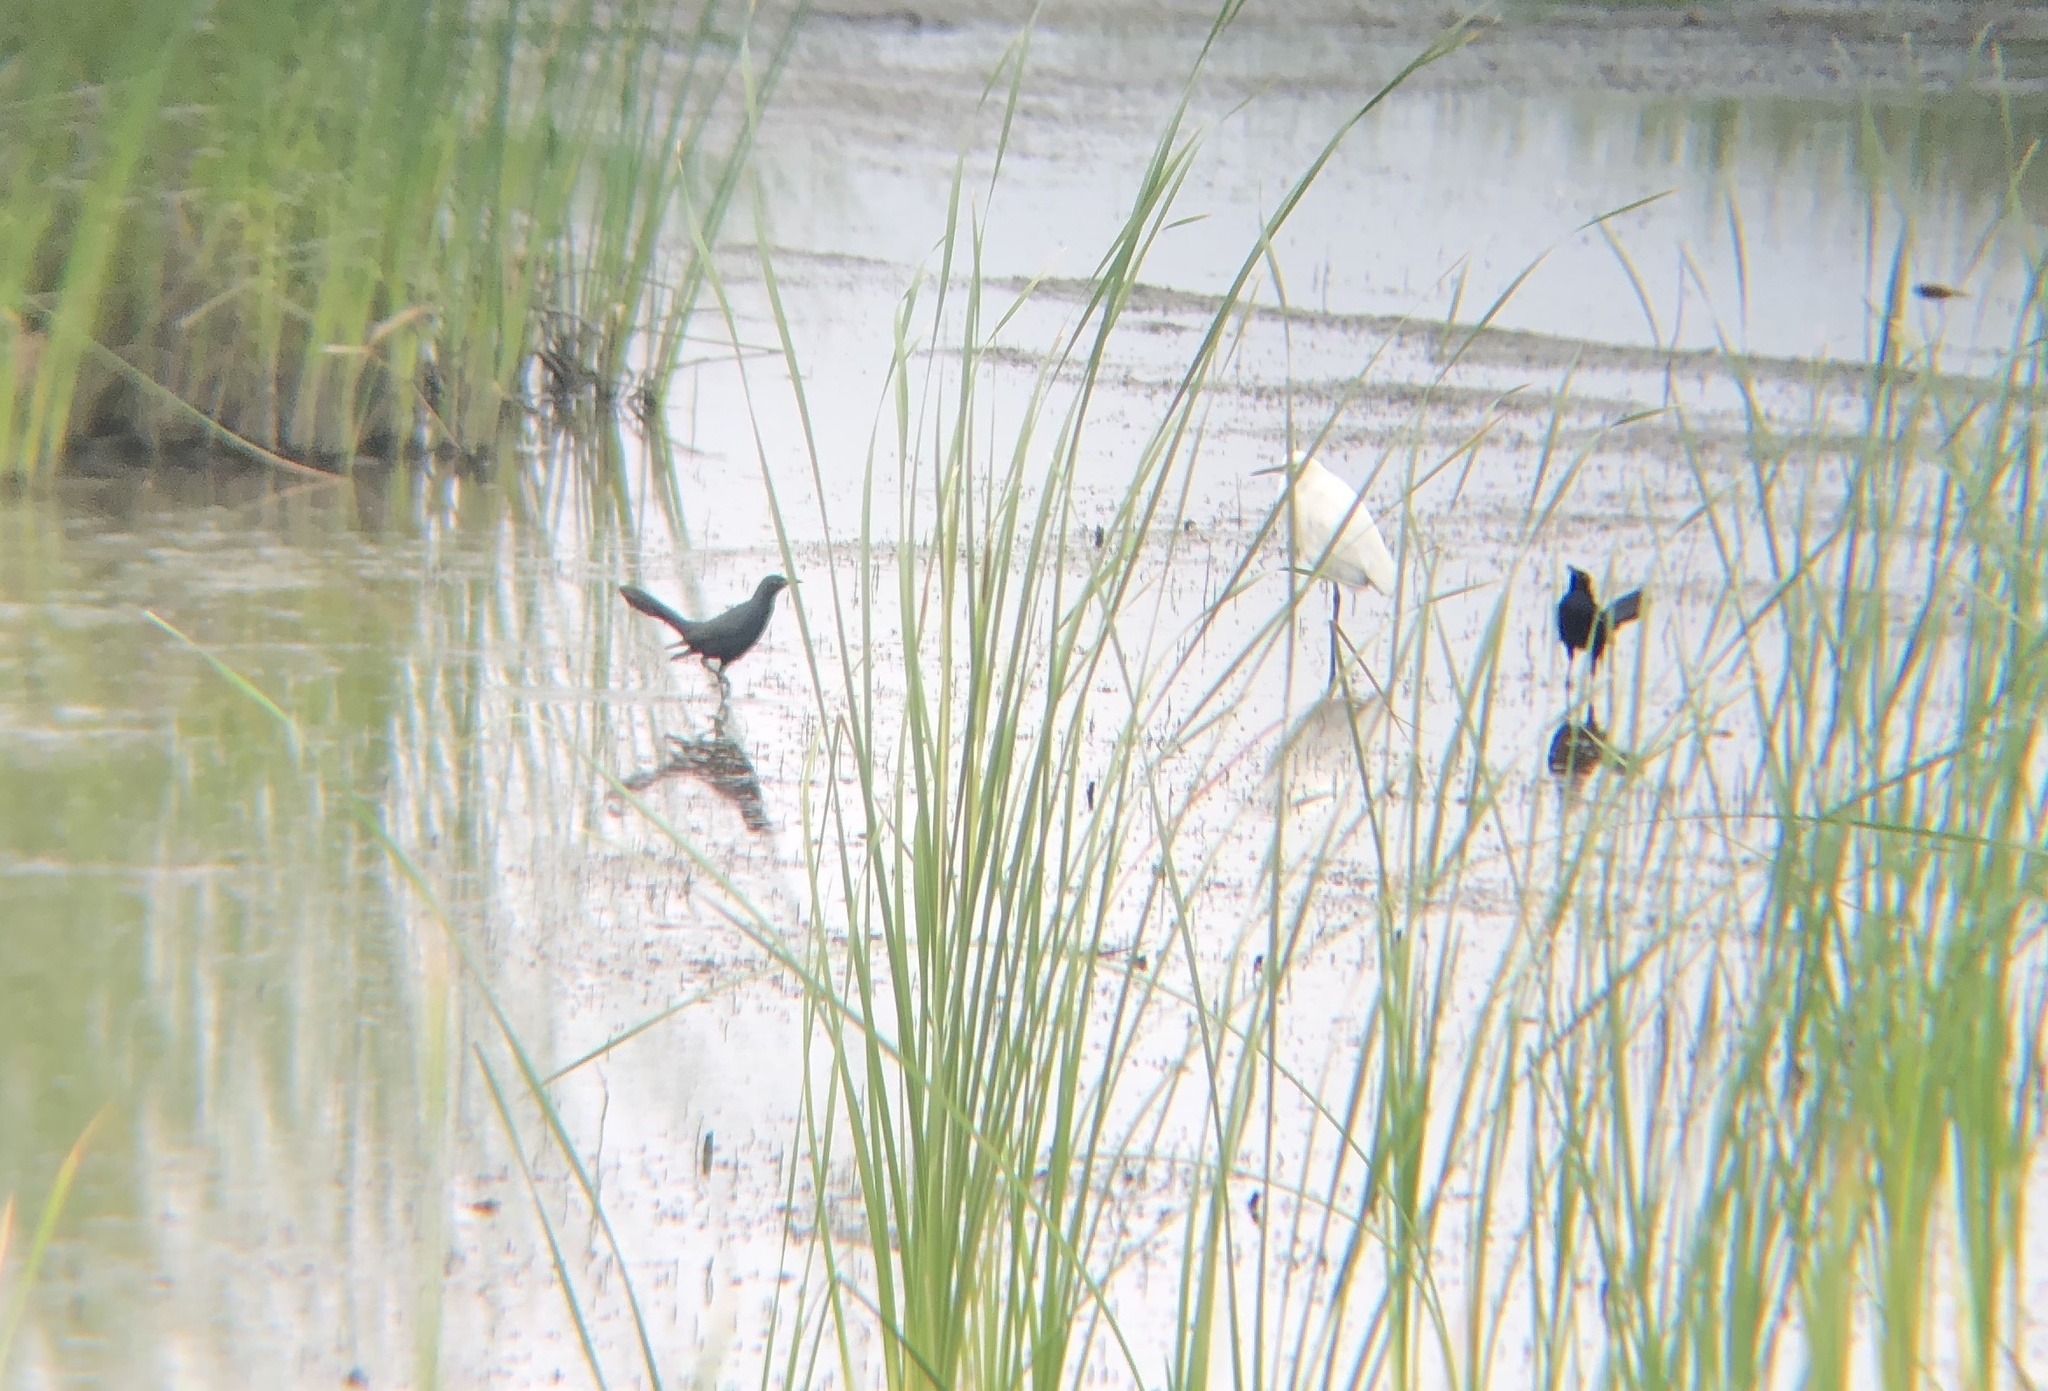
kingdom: Animalia
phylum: Chordata
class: Aves
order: Passeriformes
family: Icteridae
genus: Quiscalus
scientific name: Quiscalus mexicanus
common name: Great-tailed grackle
